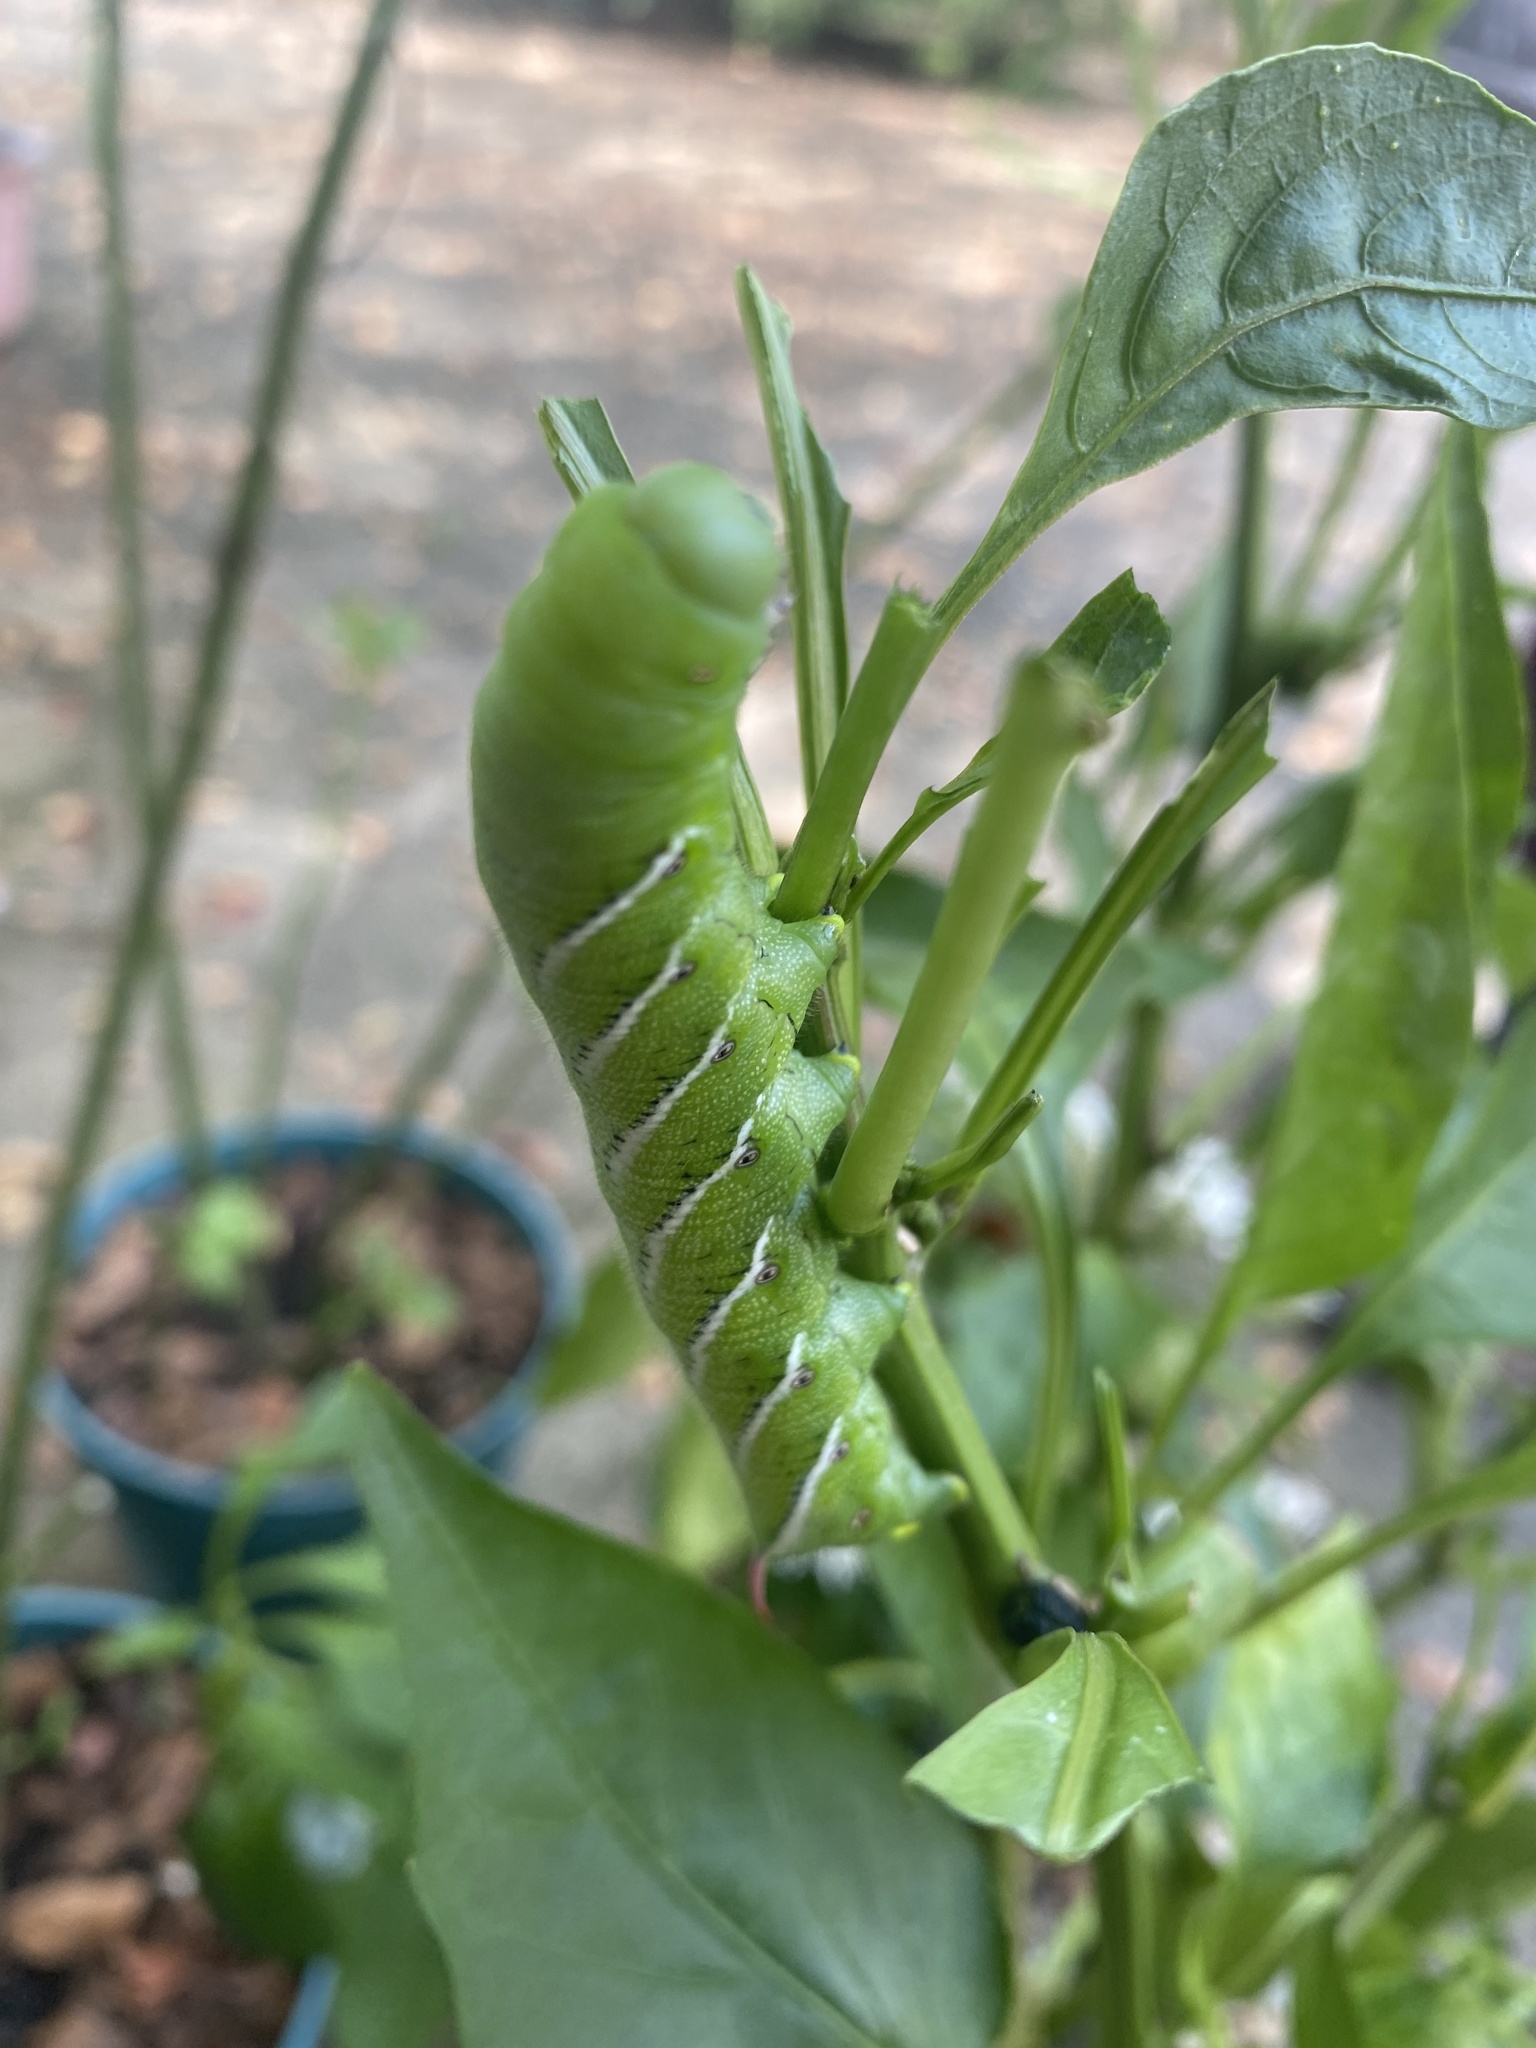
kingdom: Animalia
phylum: Arthropoda
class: Insecta
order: Lepidoptera
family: Sphingidae
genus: Manduca
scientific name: Manduca sexta
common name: Carolina sphinx
